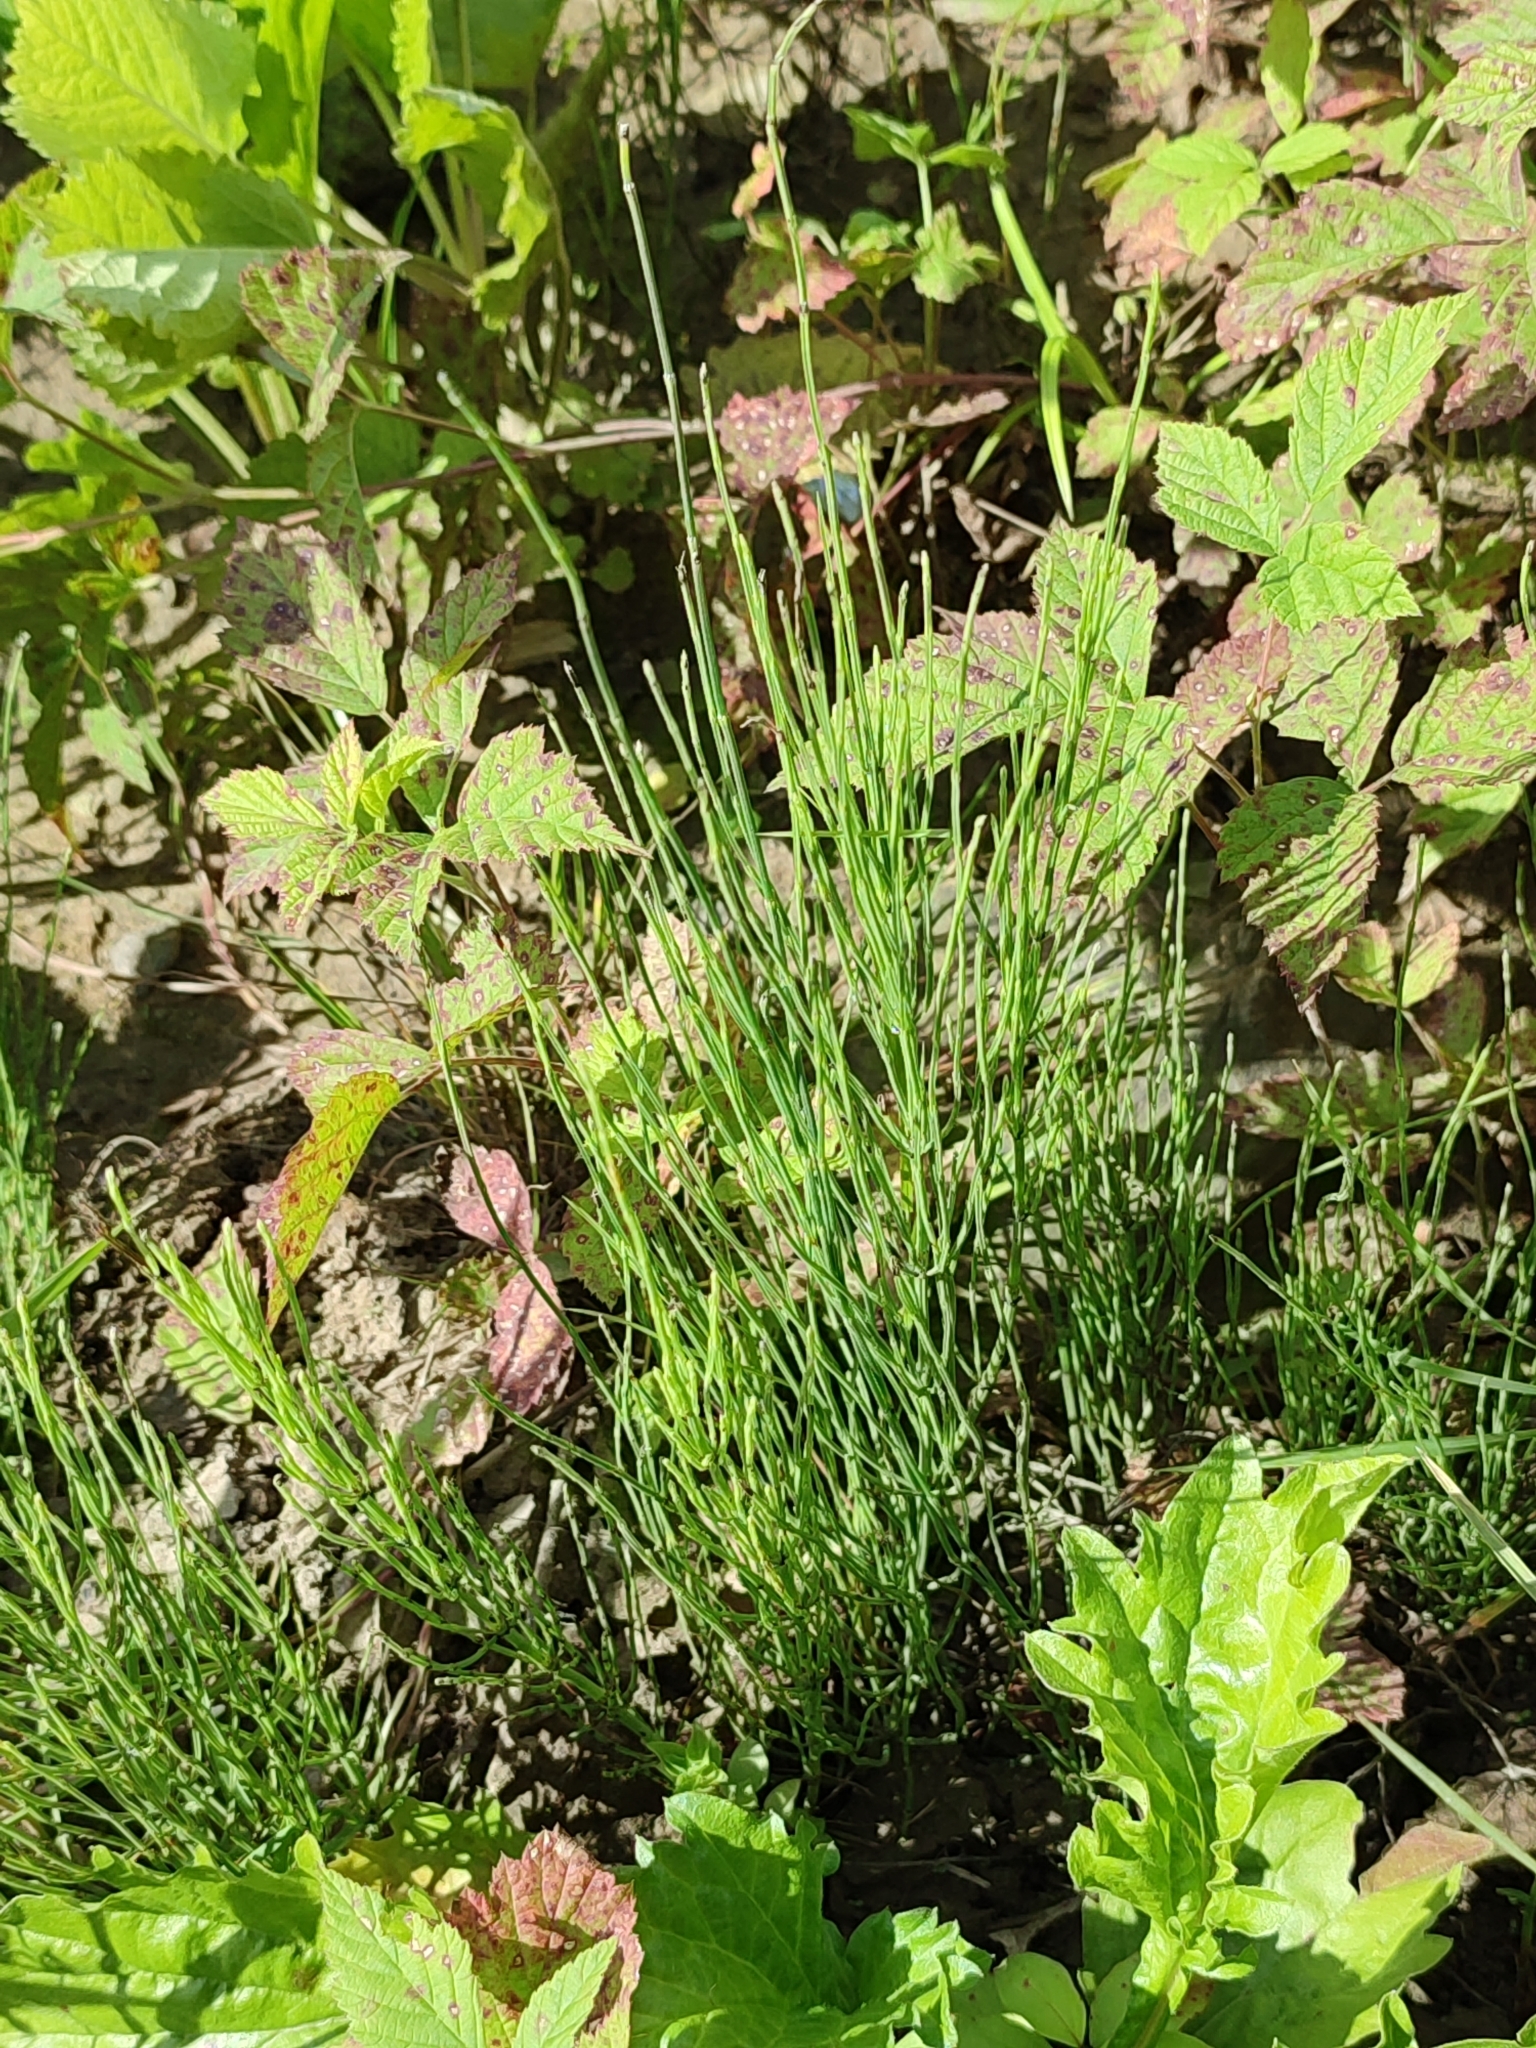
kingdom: Plantae
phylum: Tracheophyta
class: Polypodiopsida
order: Equisetales
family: Equisetaceae
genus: Equisetum
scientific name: Equisetum arvense
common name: Field horsetail
